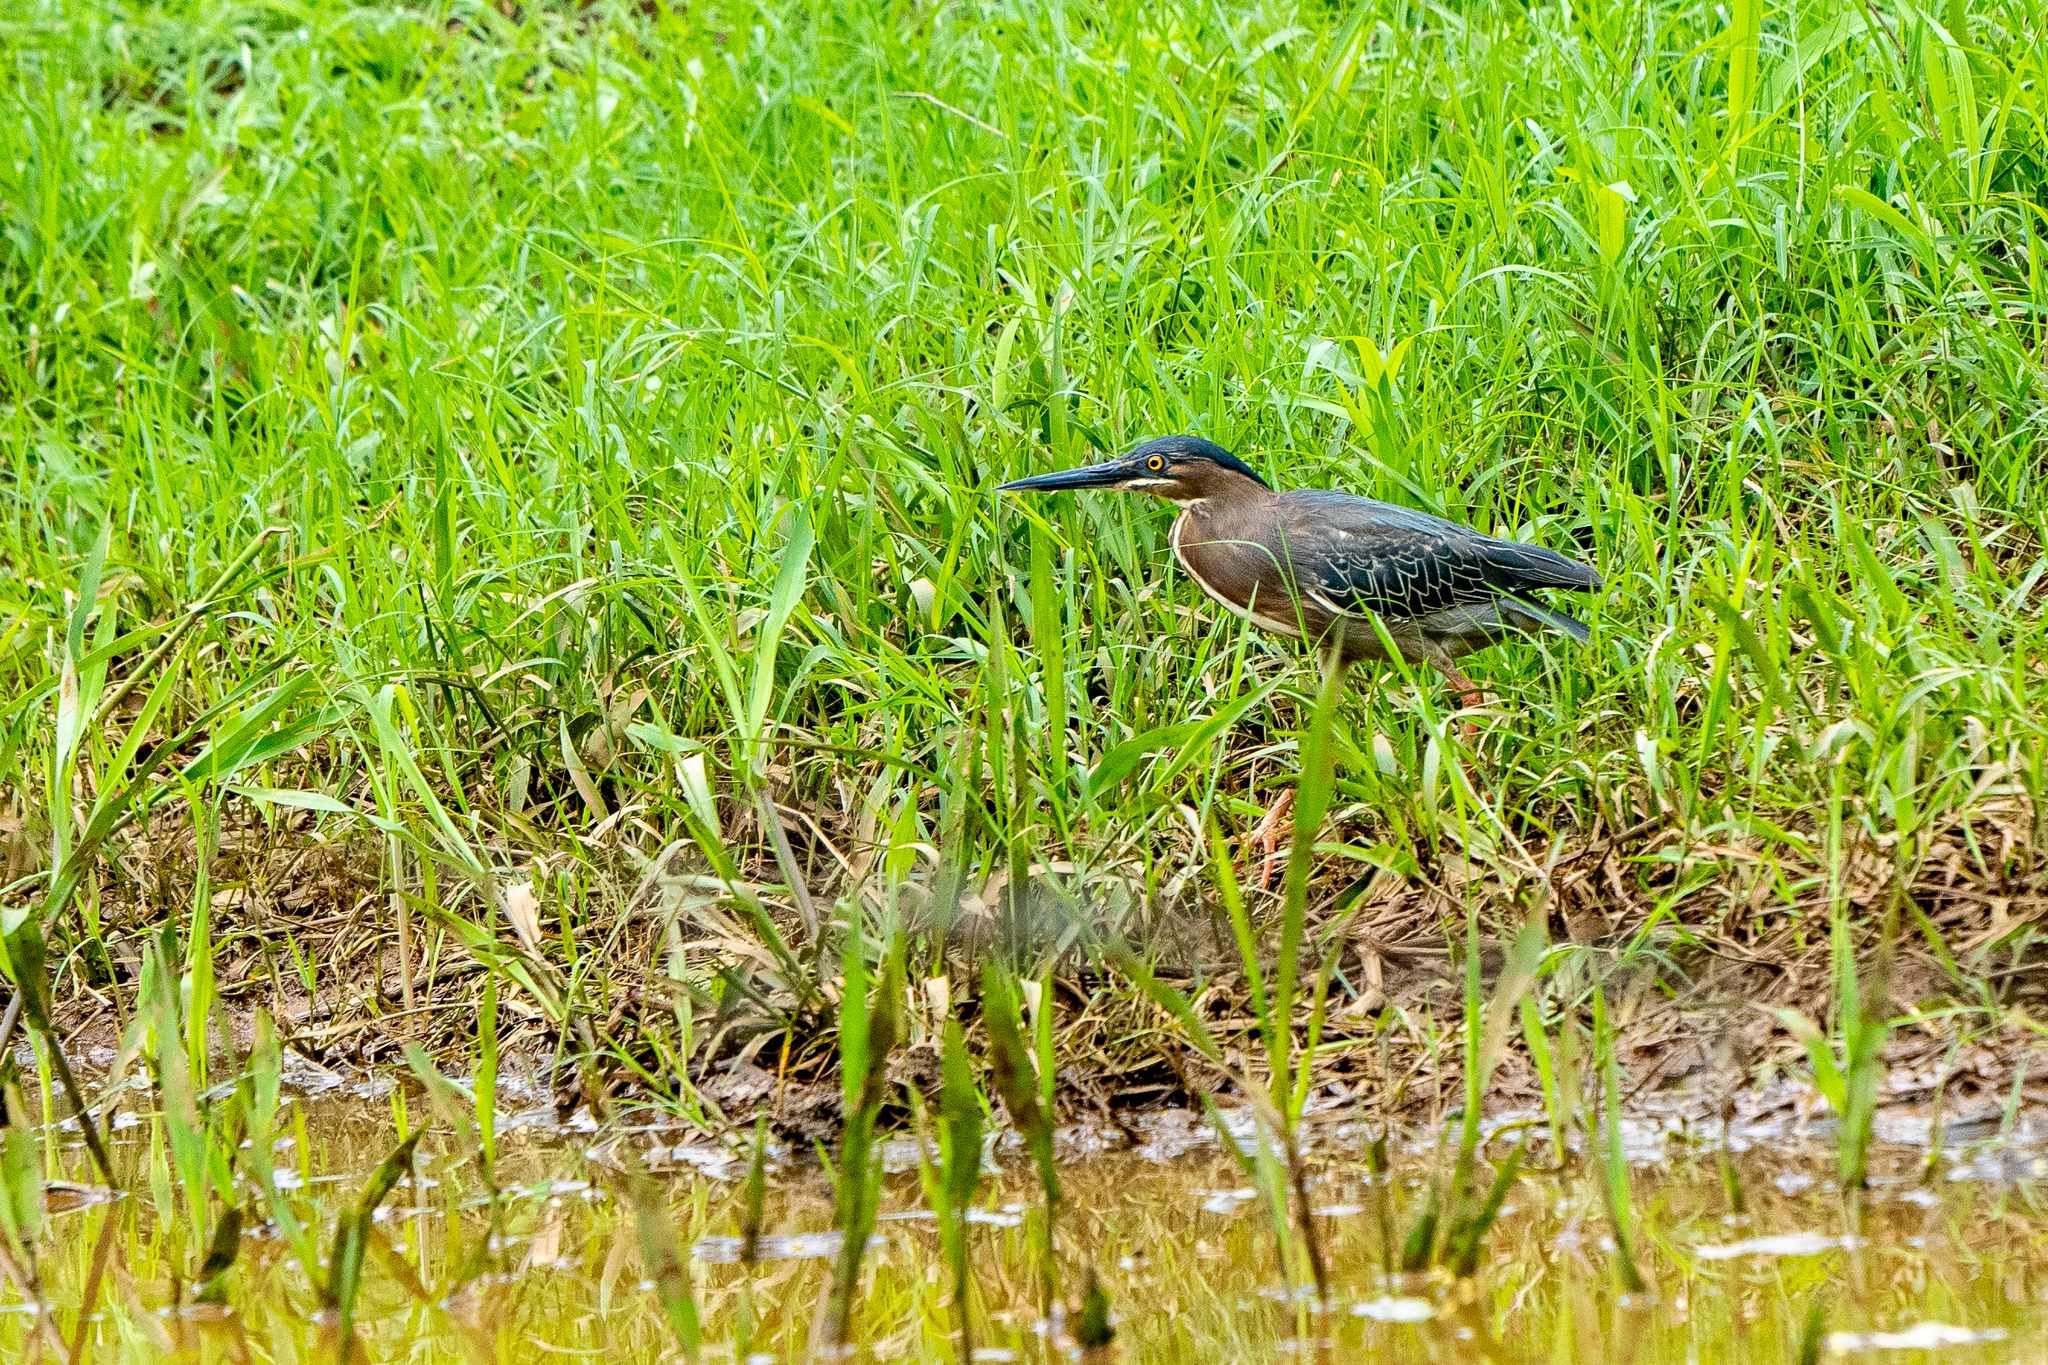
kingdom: Animalia
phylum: Chordata
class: Aves
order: Pelecaniformes
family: Ardeidae
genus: Butorides
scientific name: Butorides virescens
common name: Green heron
